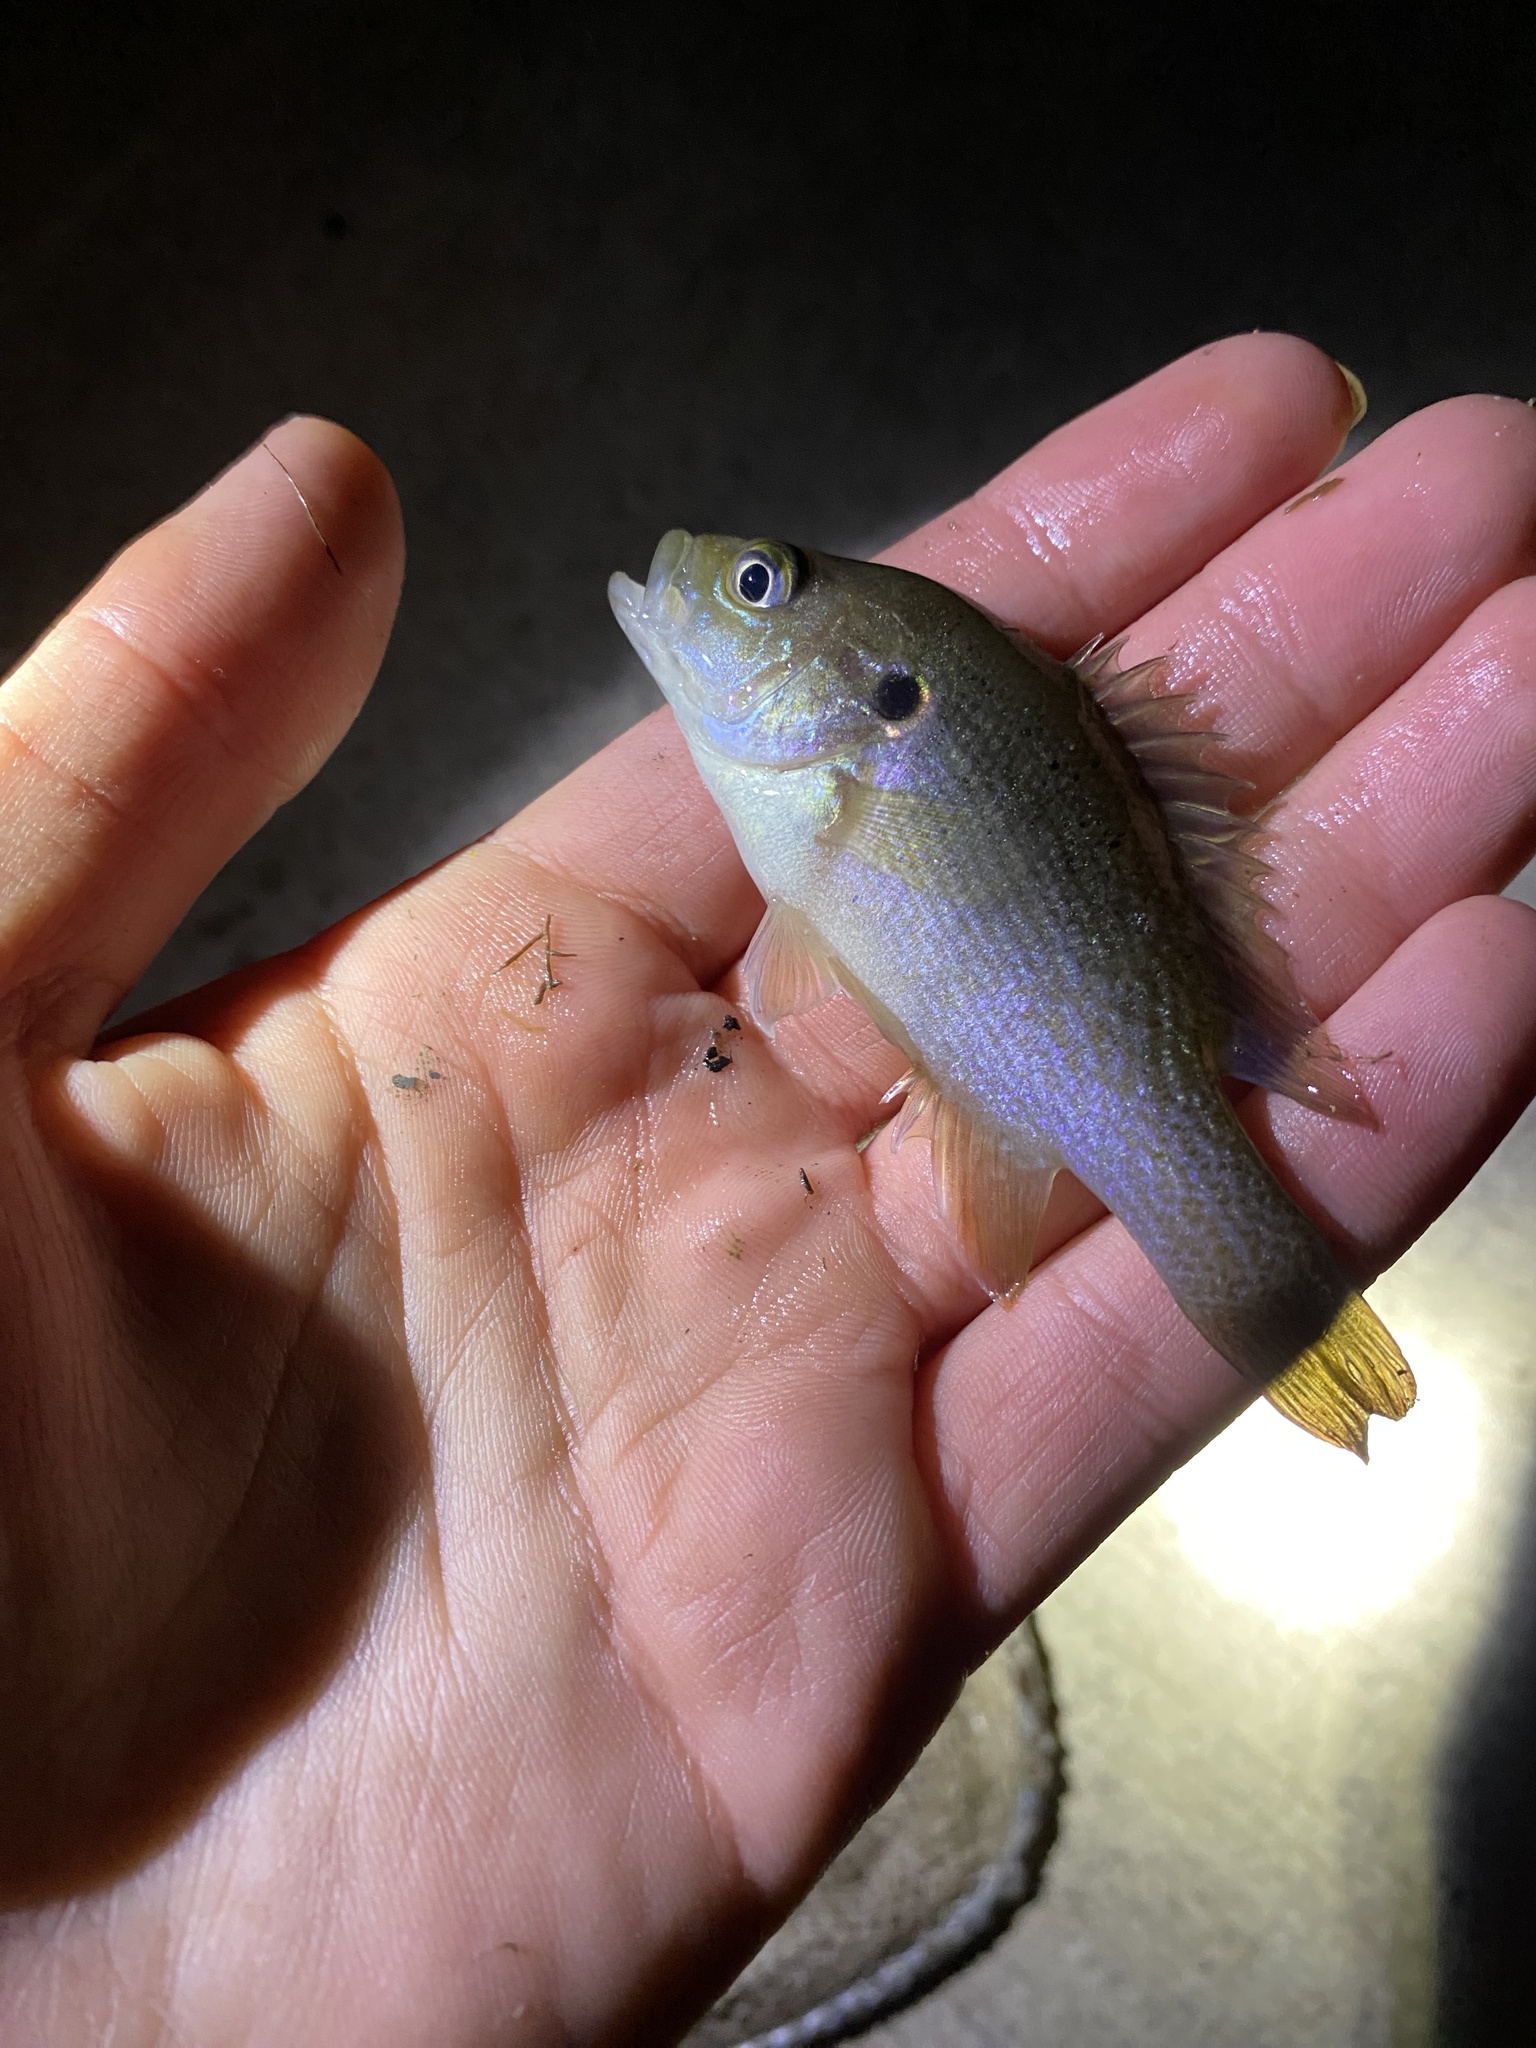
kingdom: Animalia
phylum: Chordata
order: Perciformes
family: Centrarchidae
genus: Lepomis
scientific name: Lepomis cyanellus
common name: Green sunfish
